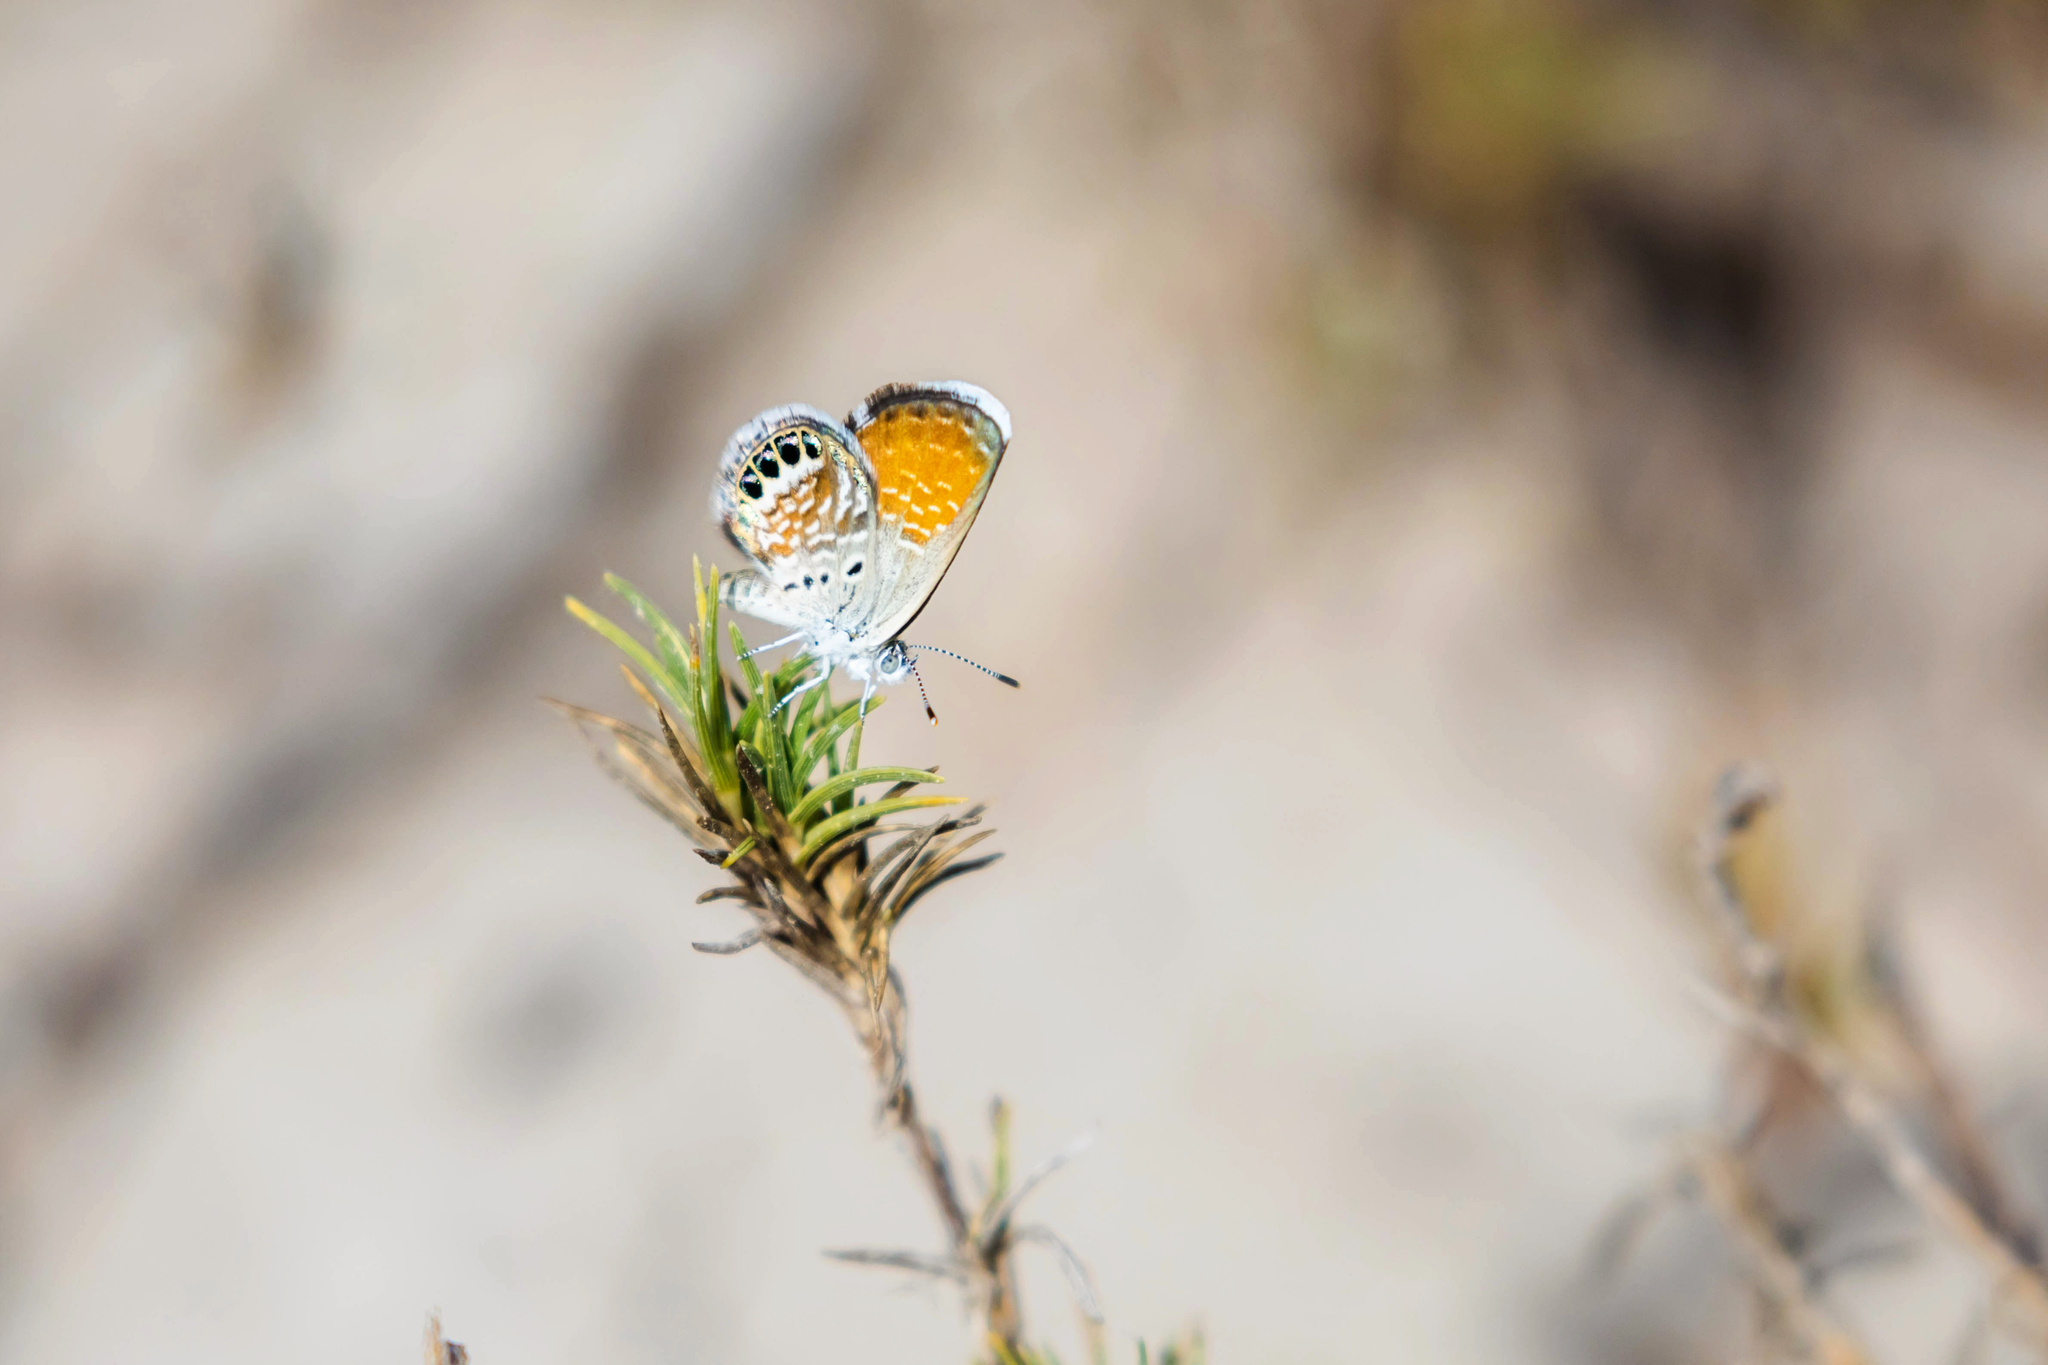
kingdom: Animalia
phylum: Arthropoda
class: Insecta
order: Lepidoptera
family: Lycaenidae
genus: Brephidium
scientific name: Brephidium exilis
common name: Pygmy blue
